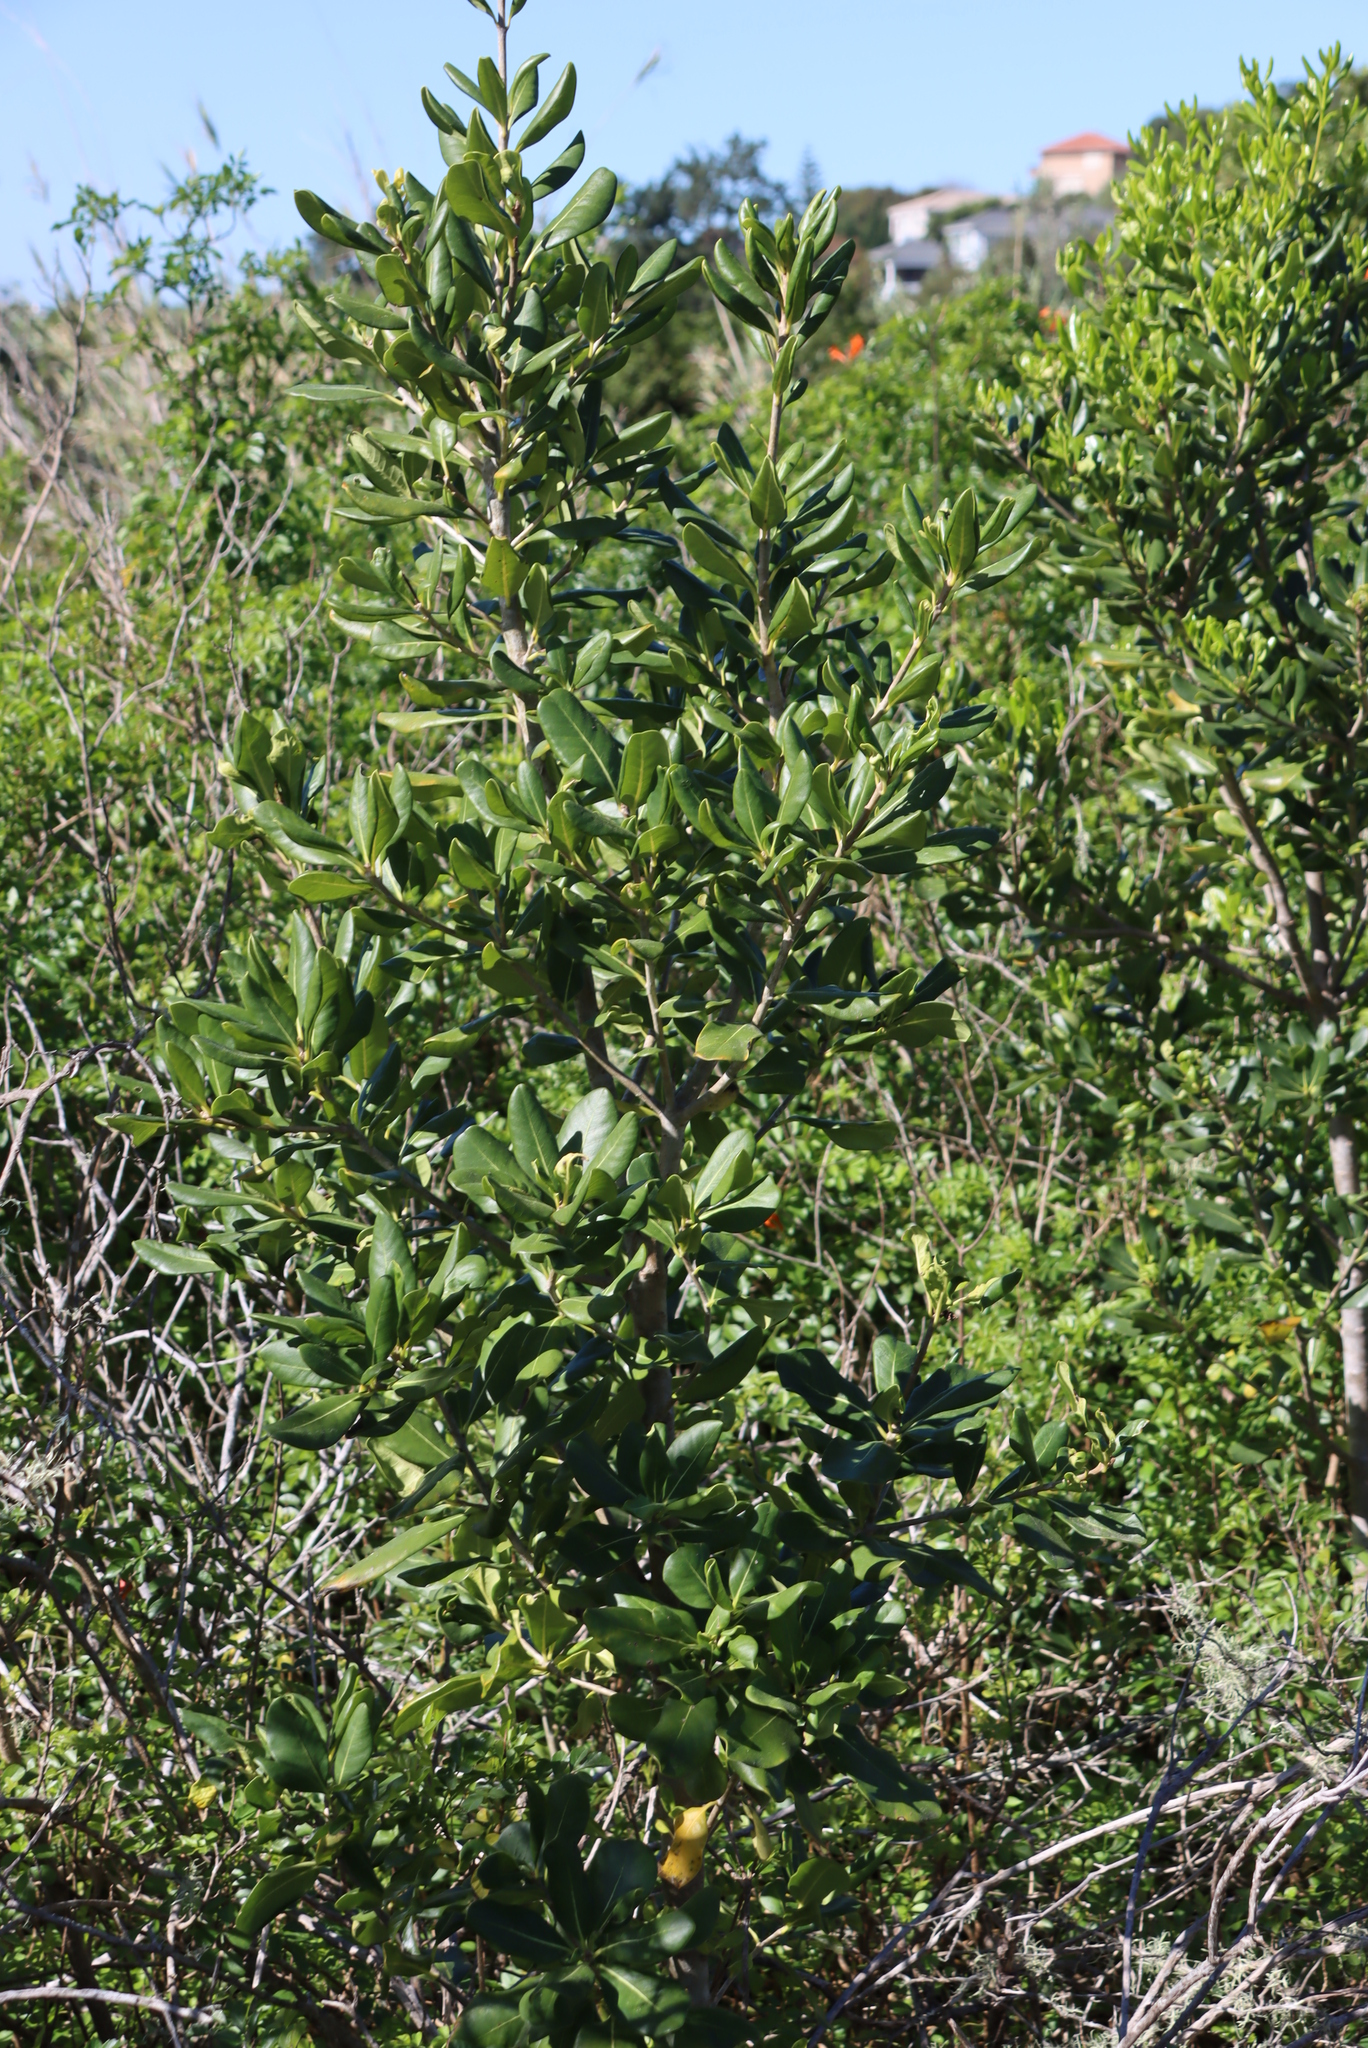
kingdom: Plantae
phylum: Tracheophyta
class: Magnoliopsida
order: Apiales
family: Pittosporaceae
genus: Pittosporum
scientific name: Pittosporum viridiflorum
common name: Cape cheesewood
